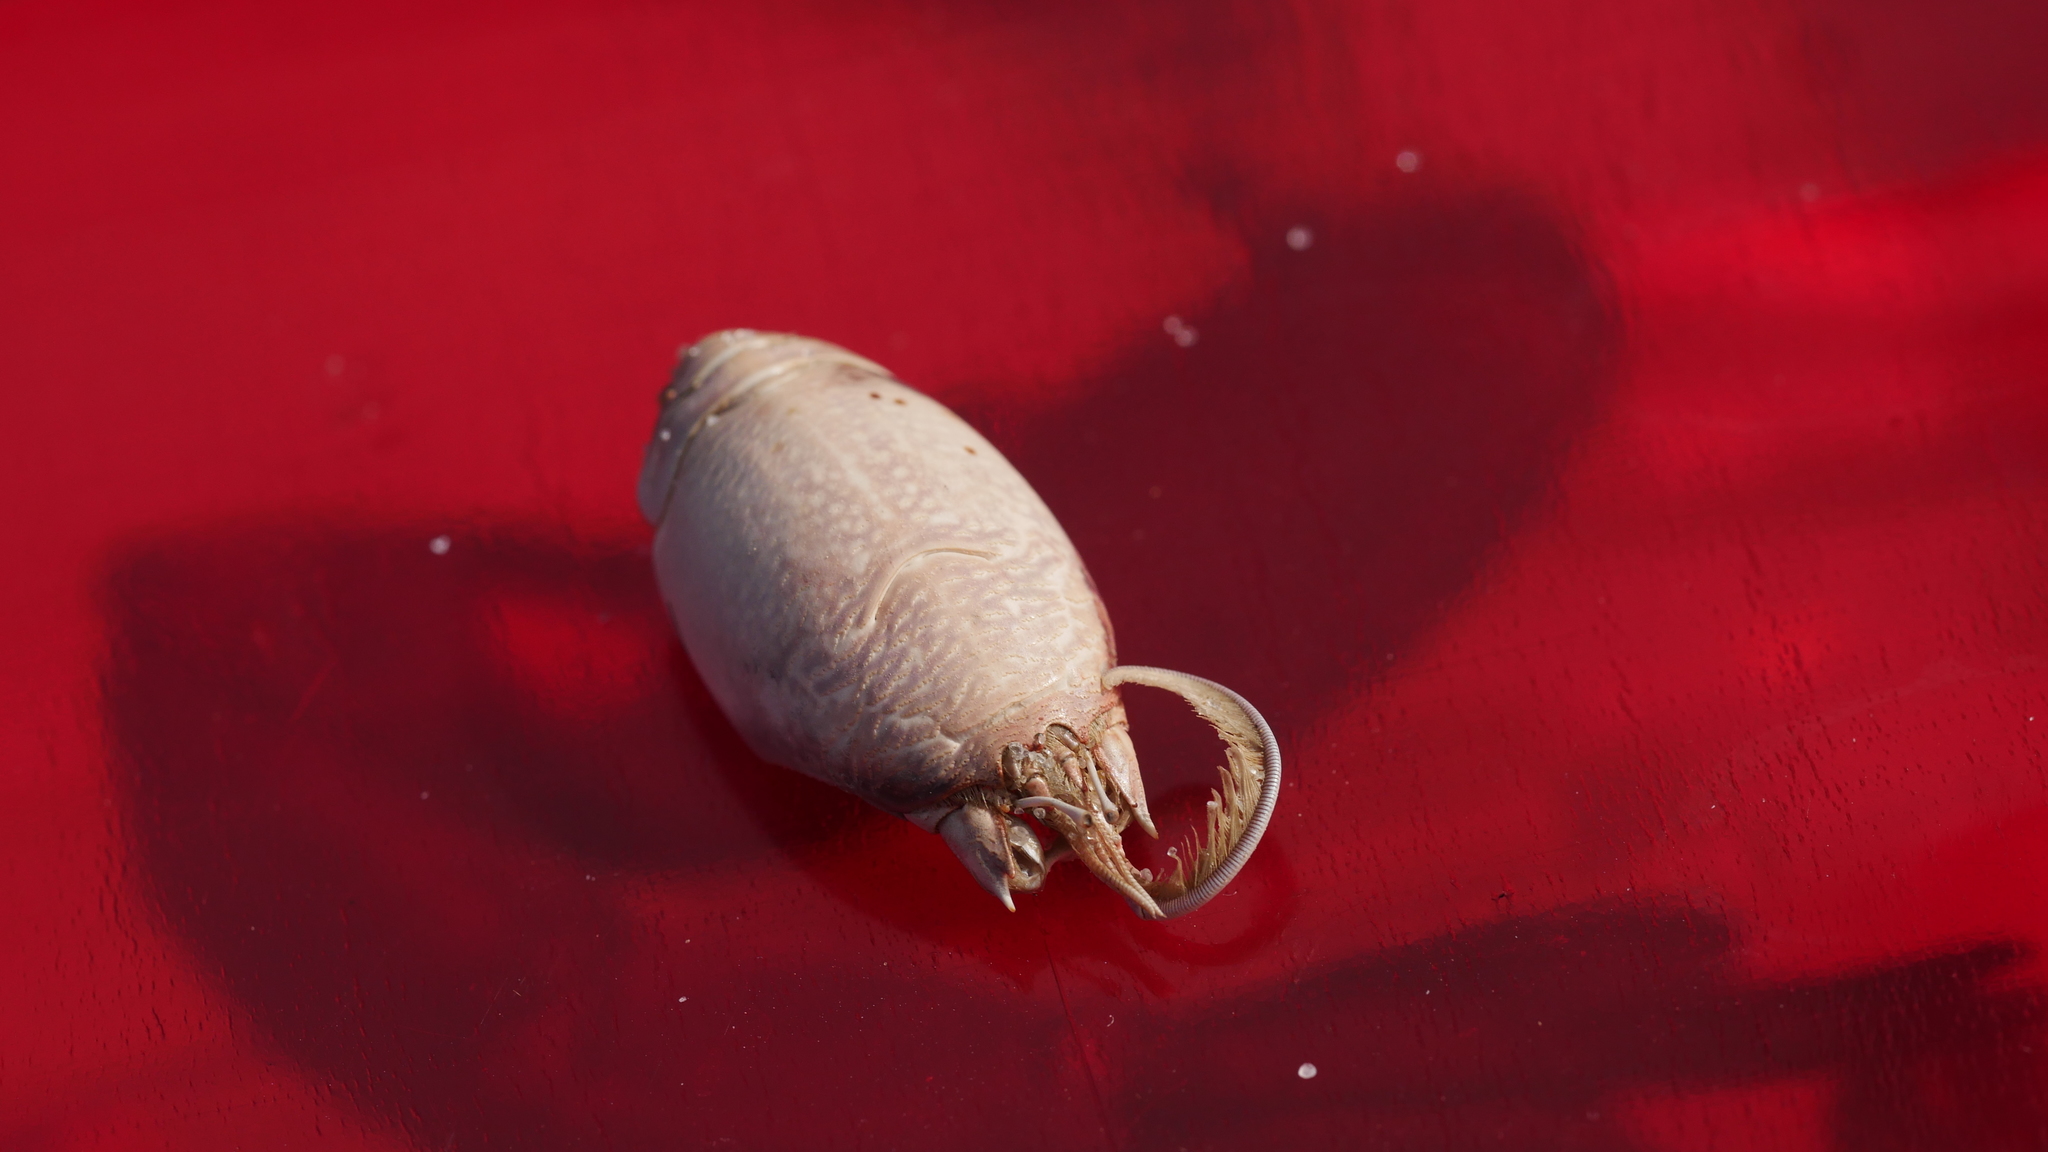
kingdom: Animalia
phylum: Arthropoda
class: Malacostraca
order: Decapoda
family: Hippidae
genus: Emerita
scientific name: Emerita talpoida
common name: Atlantic sand crab
